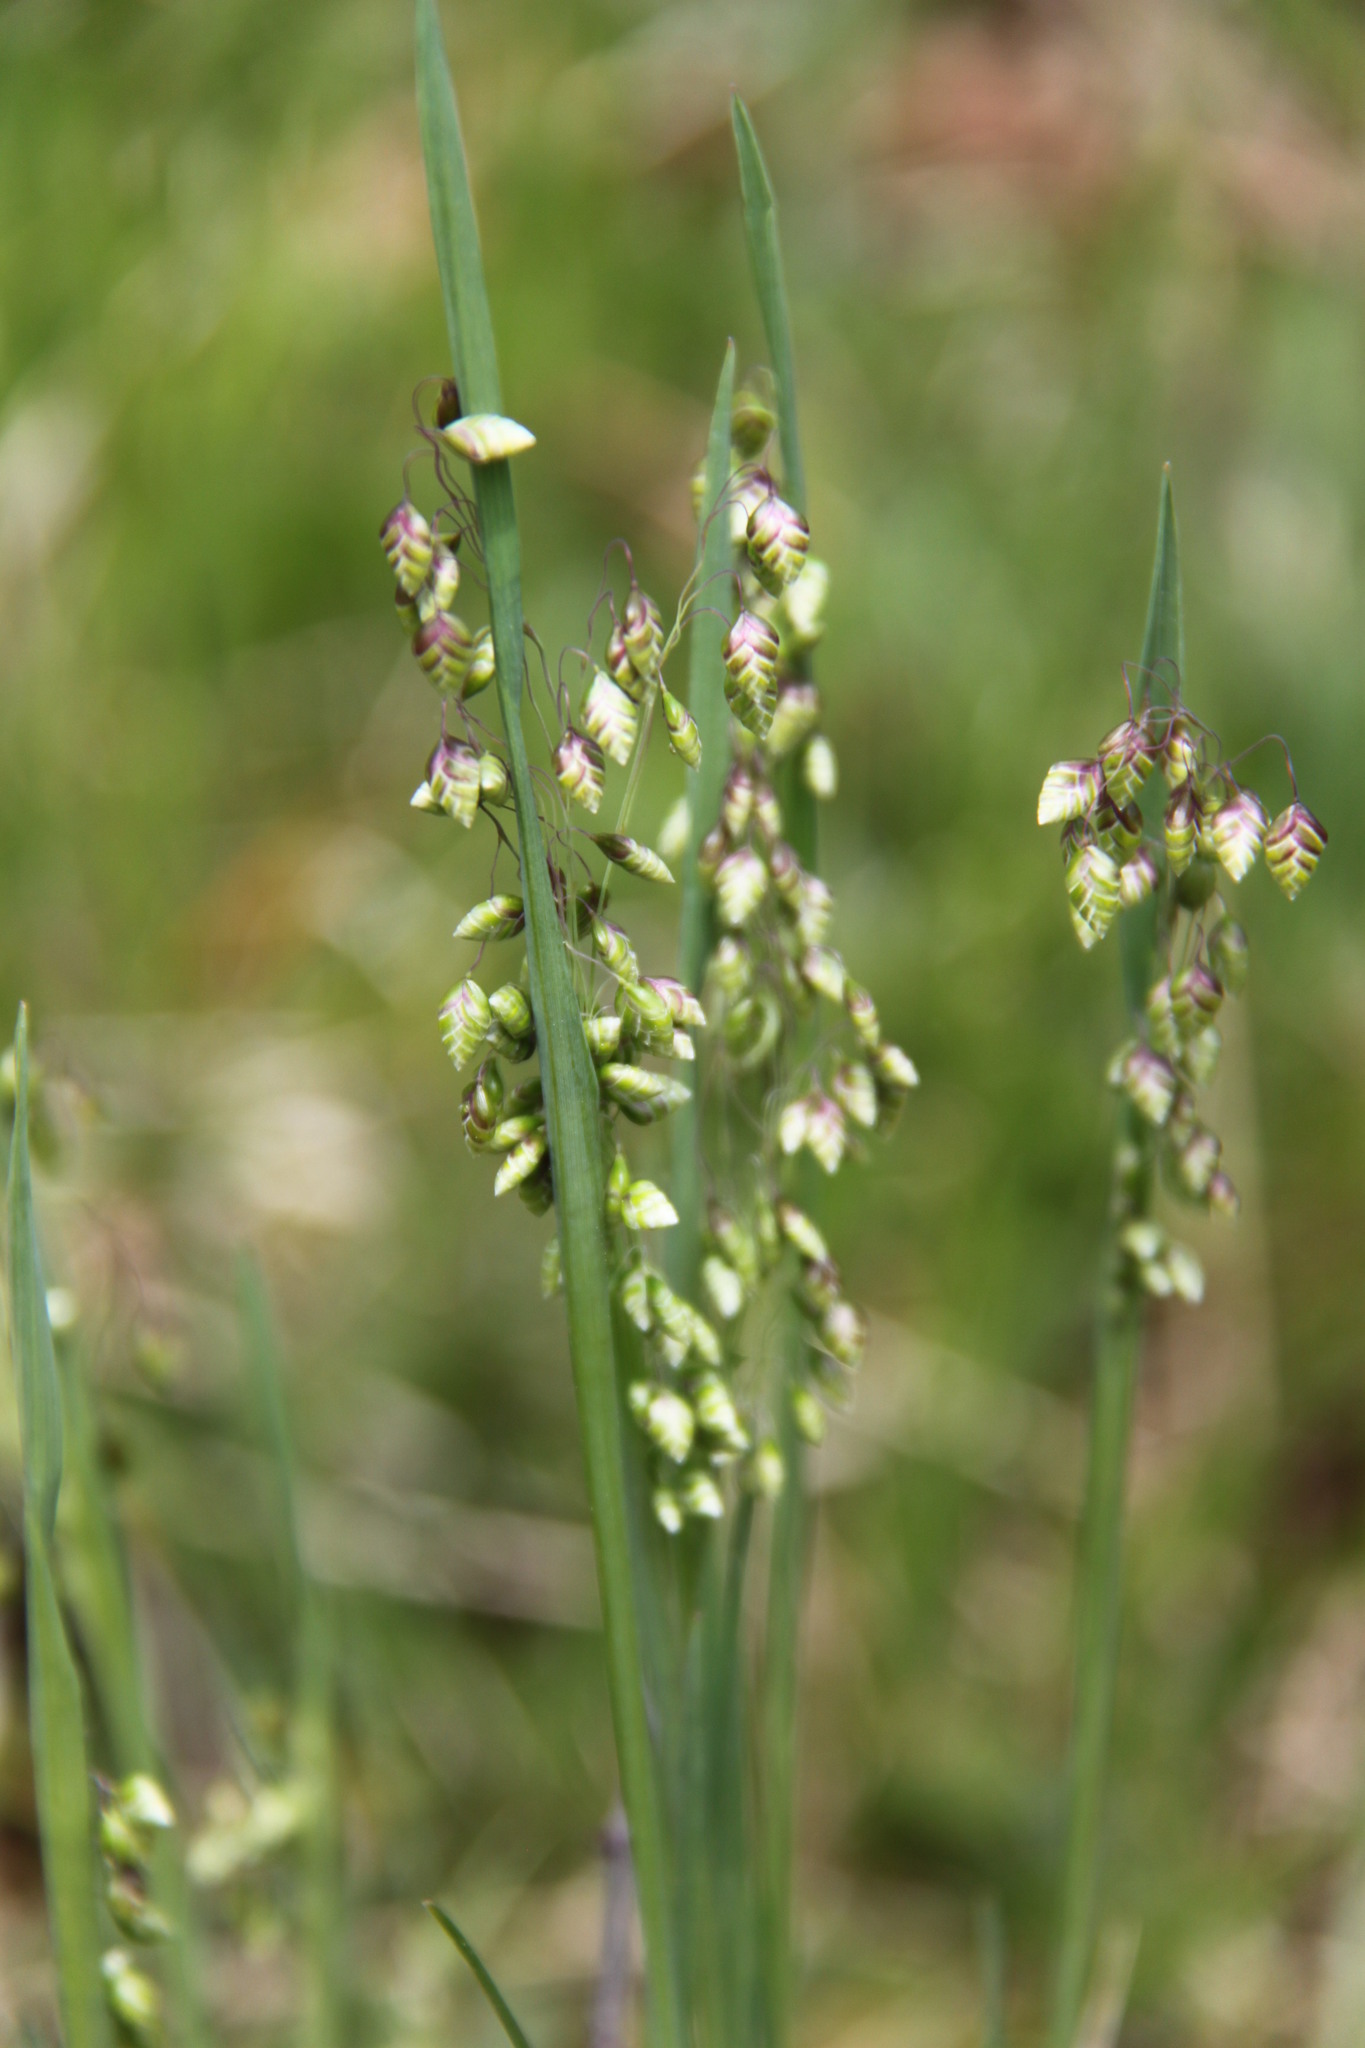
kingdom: Plantae
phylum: Tracheophyta
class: Liliopsida
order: Poales
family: Poaceae
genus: Briza
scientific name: Briza media
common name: Quaking grass
